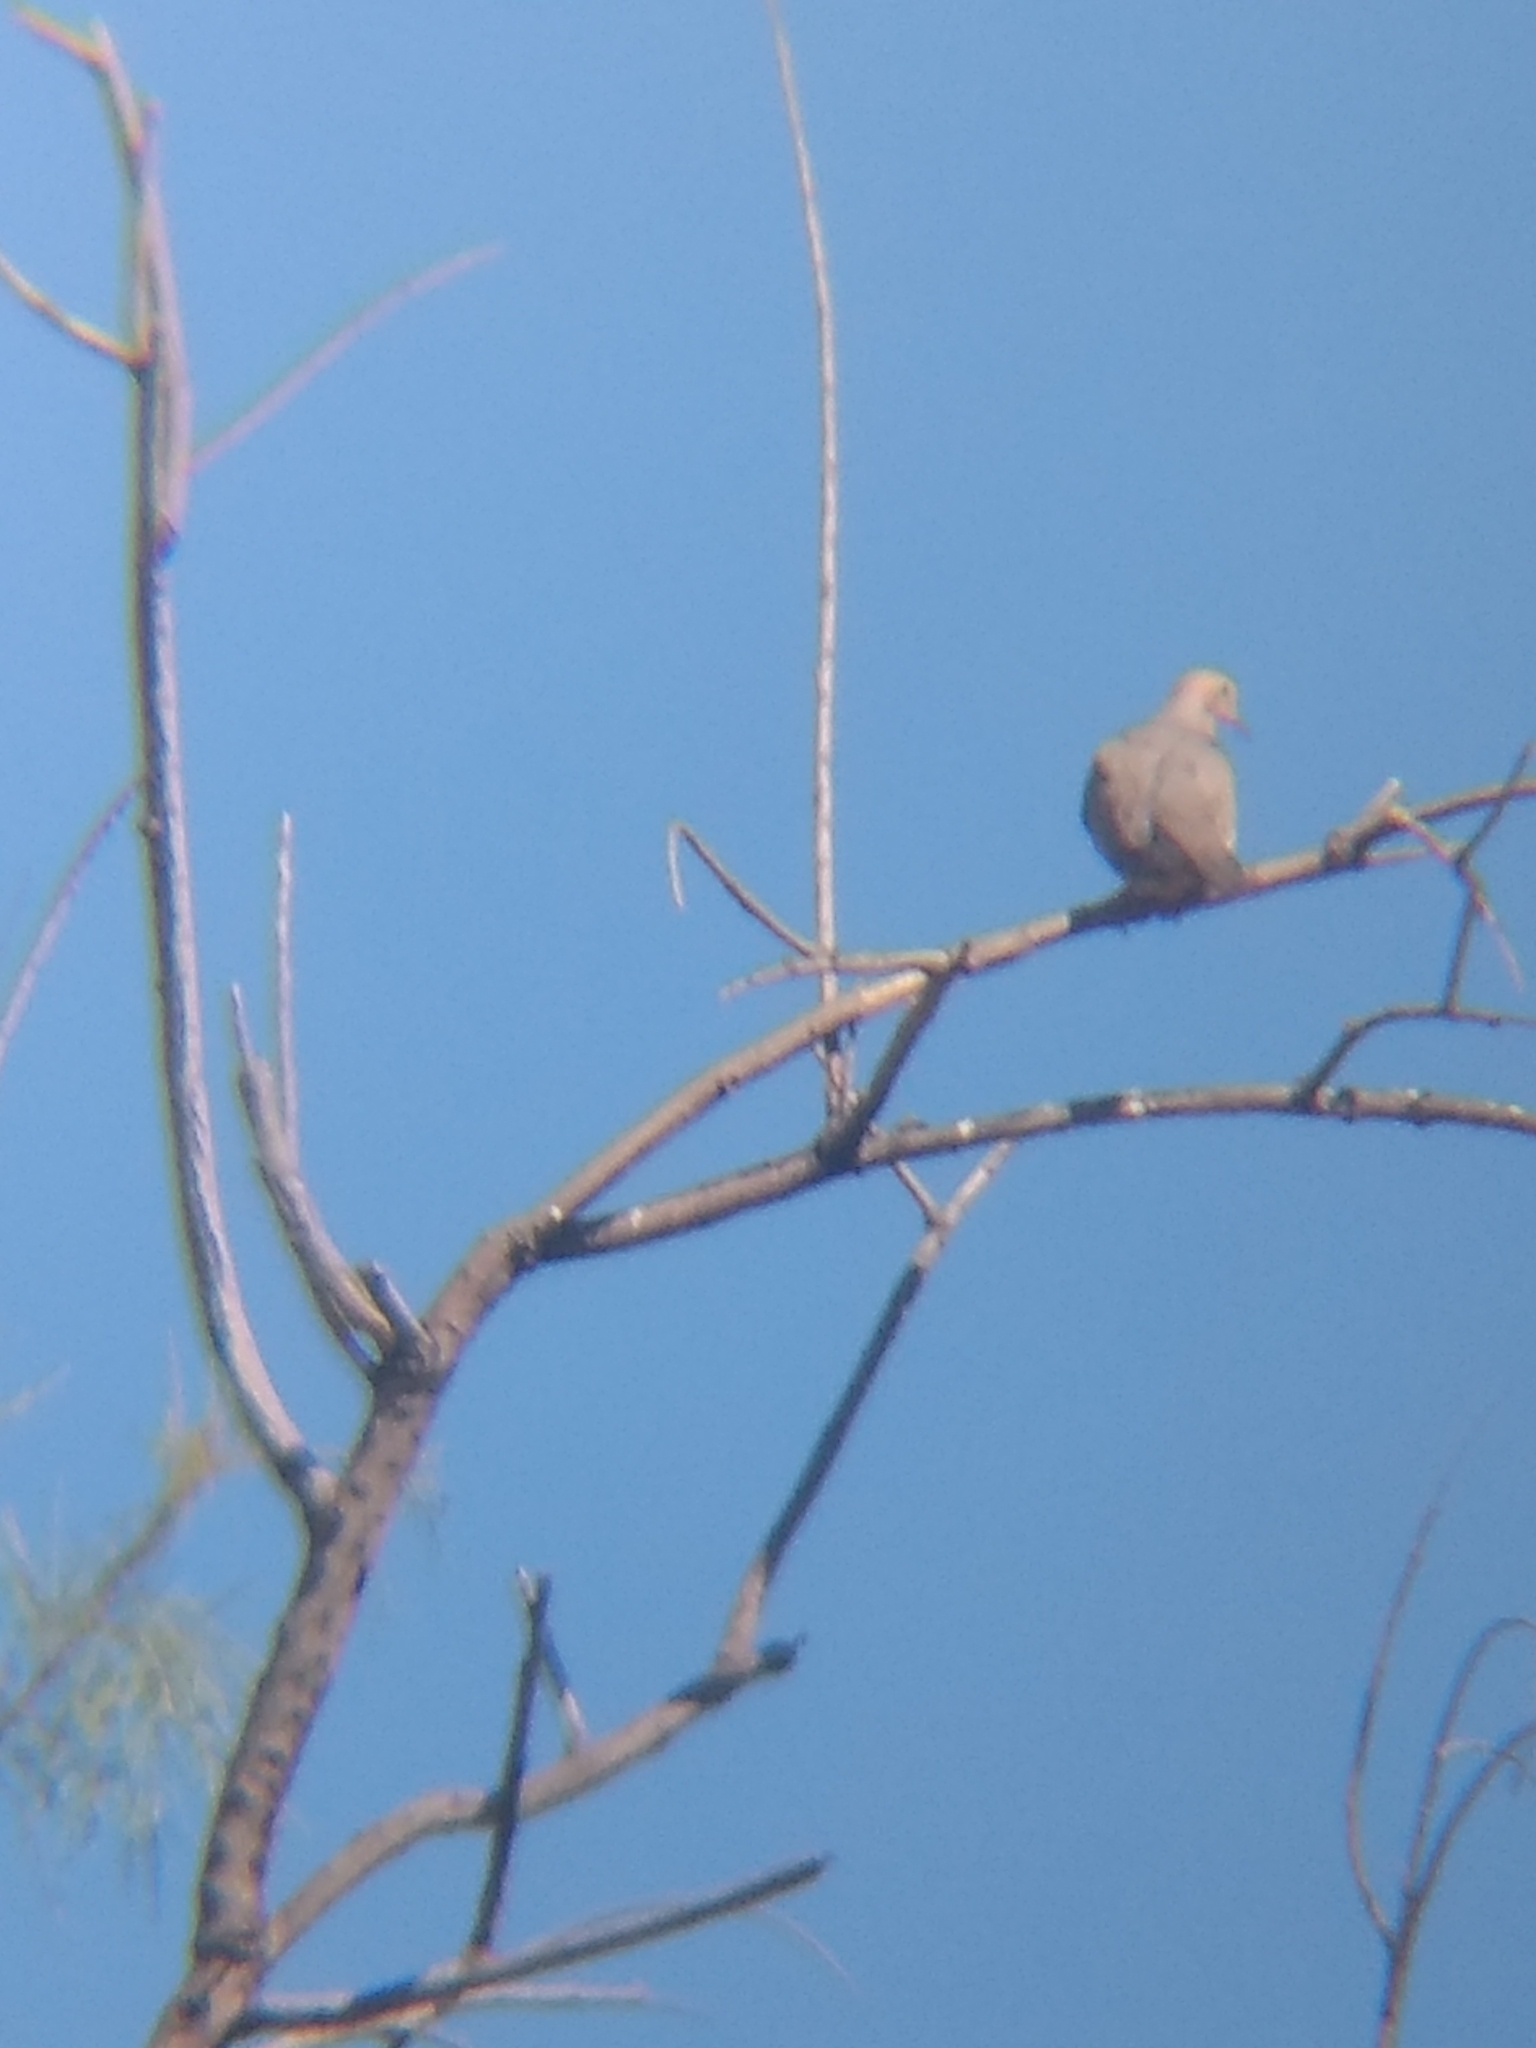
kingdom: Animalia
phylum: Chordata
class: Aves
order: Columbiformes
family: Columbidae
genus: Zenaida
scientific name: Zenaida macroura
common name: Mourning dove
